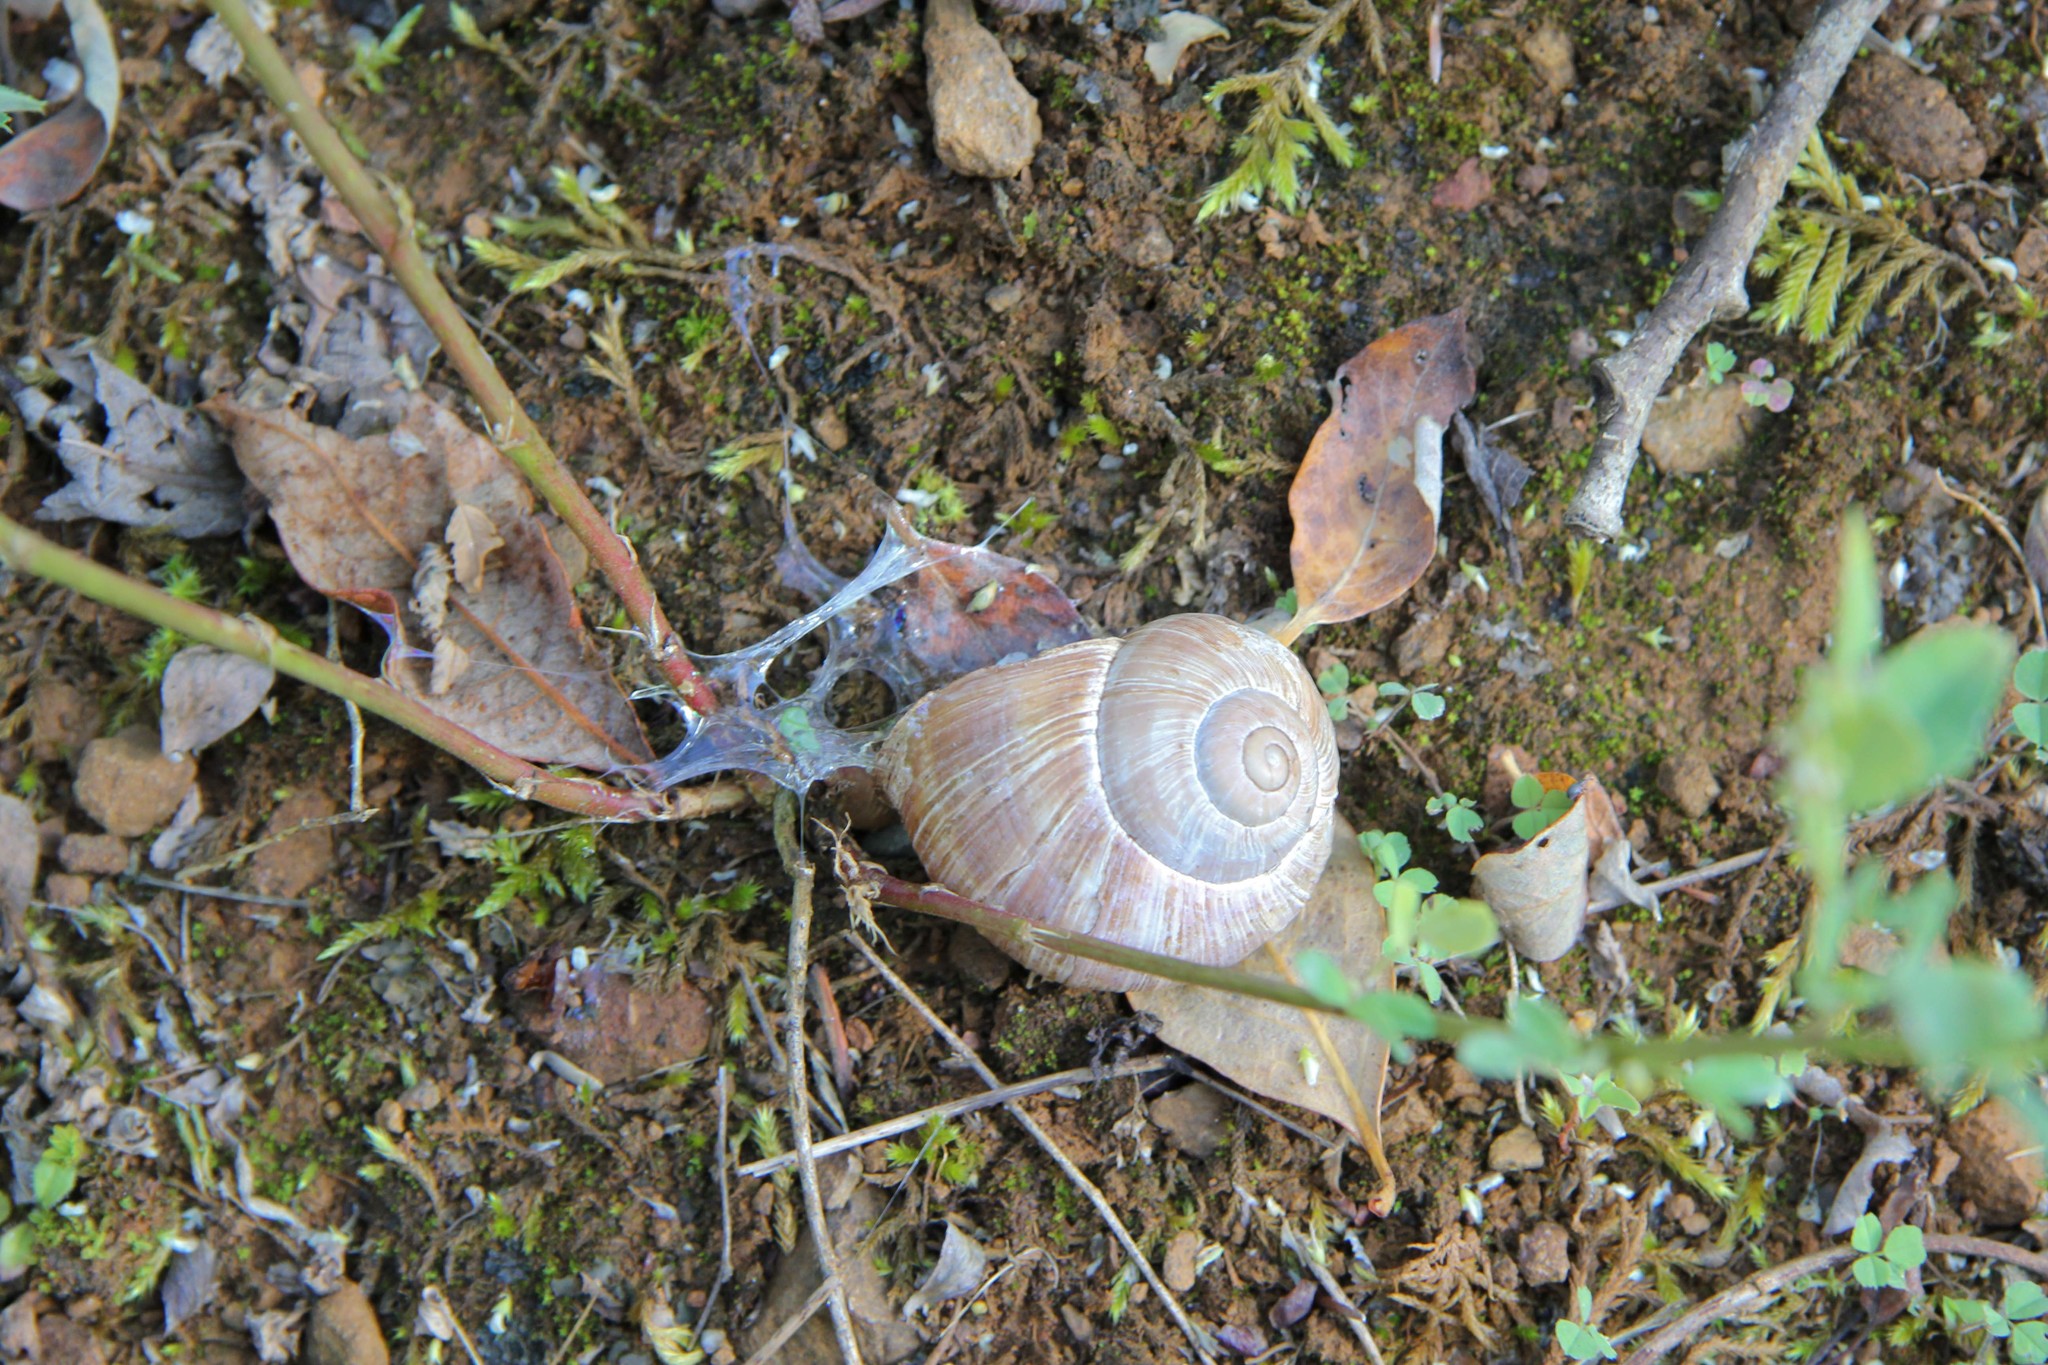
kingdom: Animalia
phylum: Mollusca
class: Gastropoda
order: Stylommatophora
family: Helicidae
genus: Helix
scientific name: Helix pomatia
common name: Roman snail
